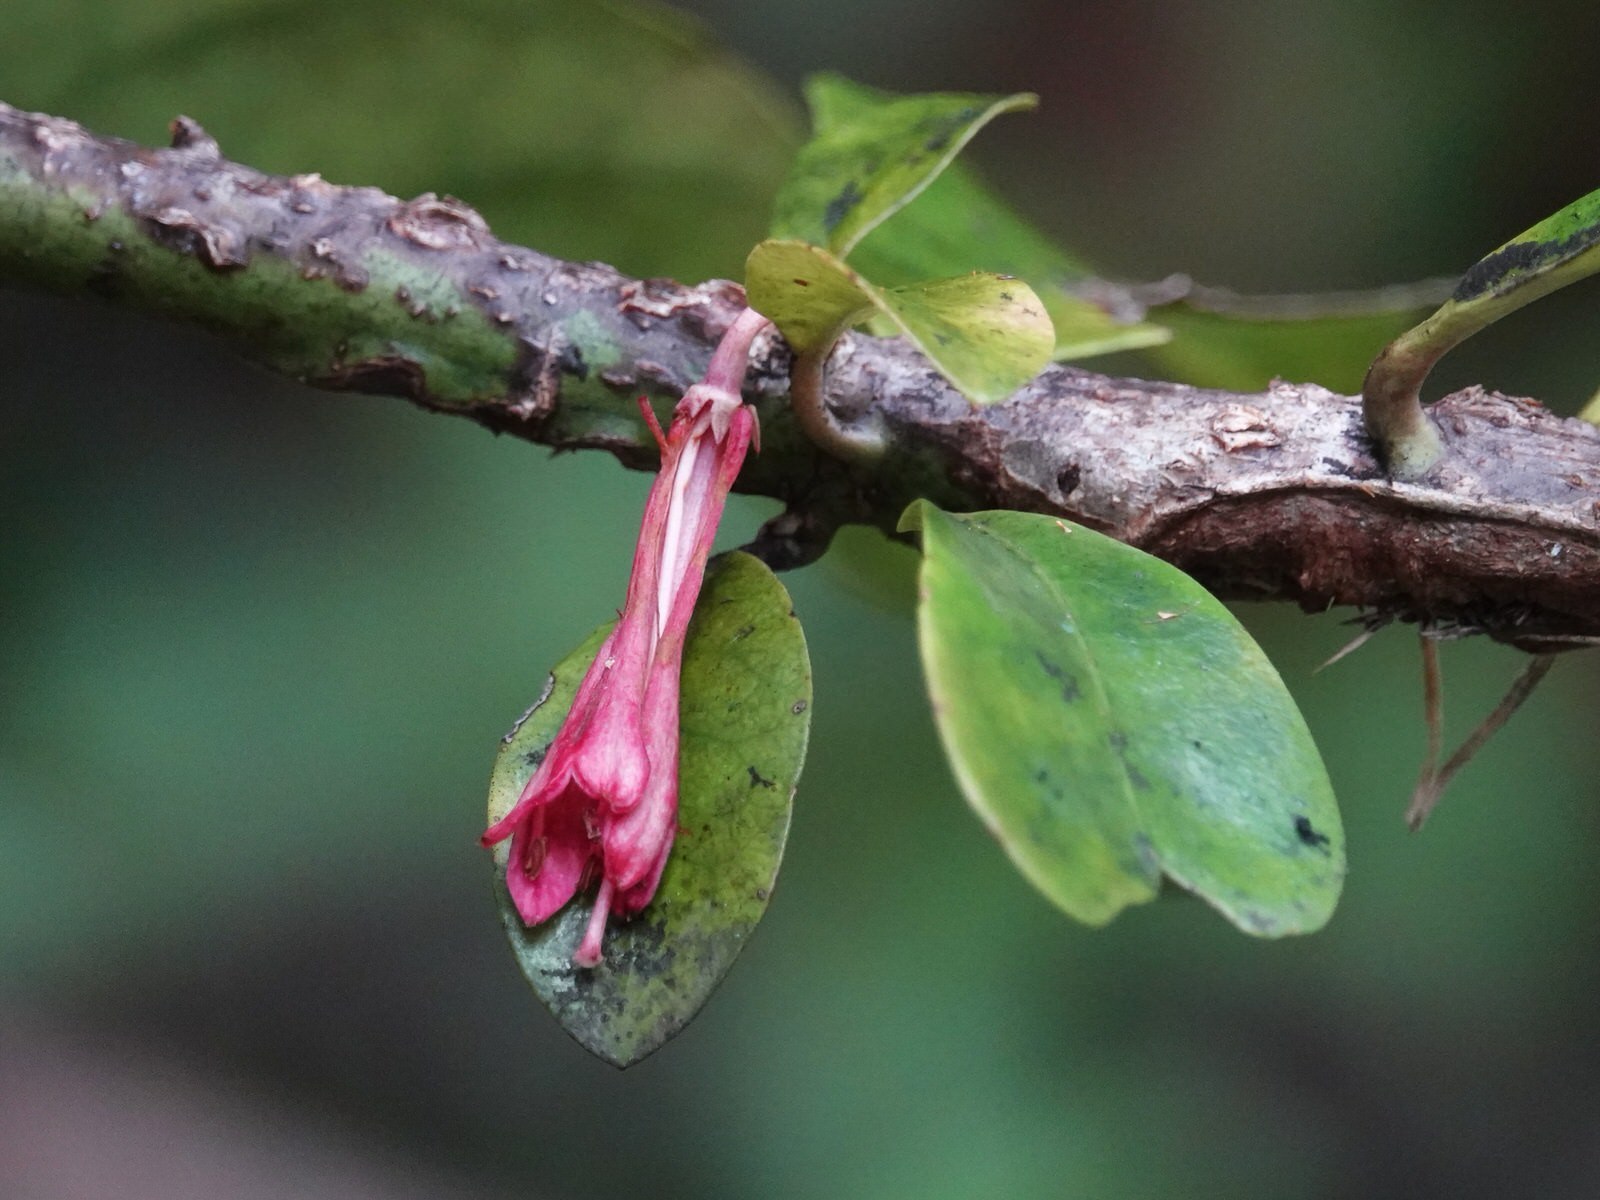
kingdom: Plantae
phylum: Tracheophyta
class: Magnoliopsida
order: Asterales
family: Alseuosmiaceae
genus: Alseuosmia
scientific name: Alseuosmia macrophylla
